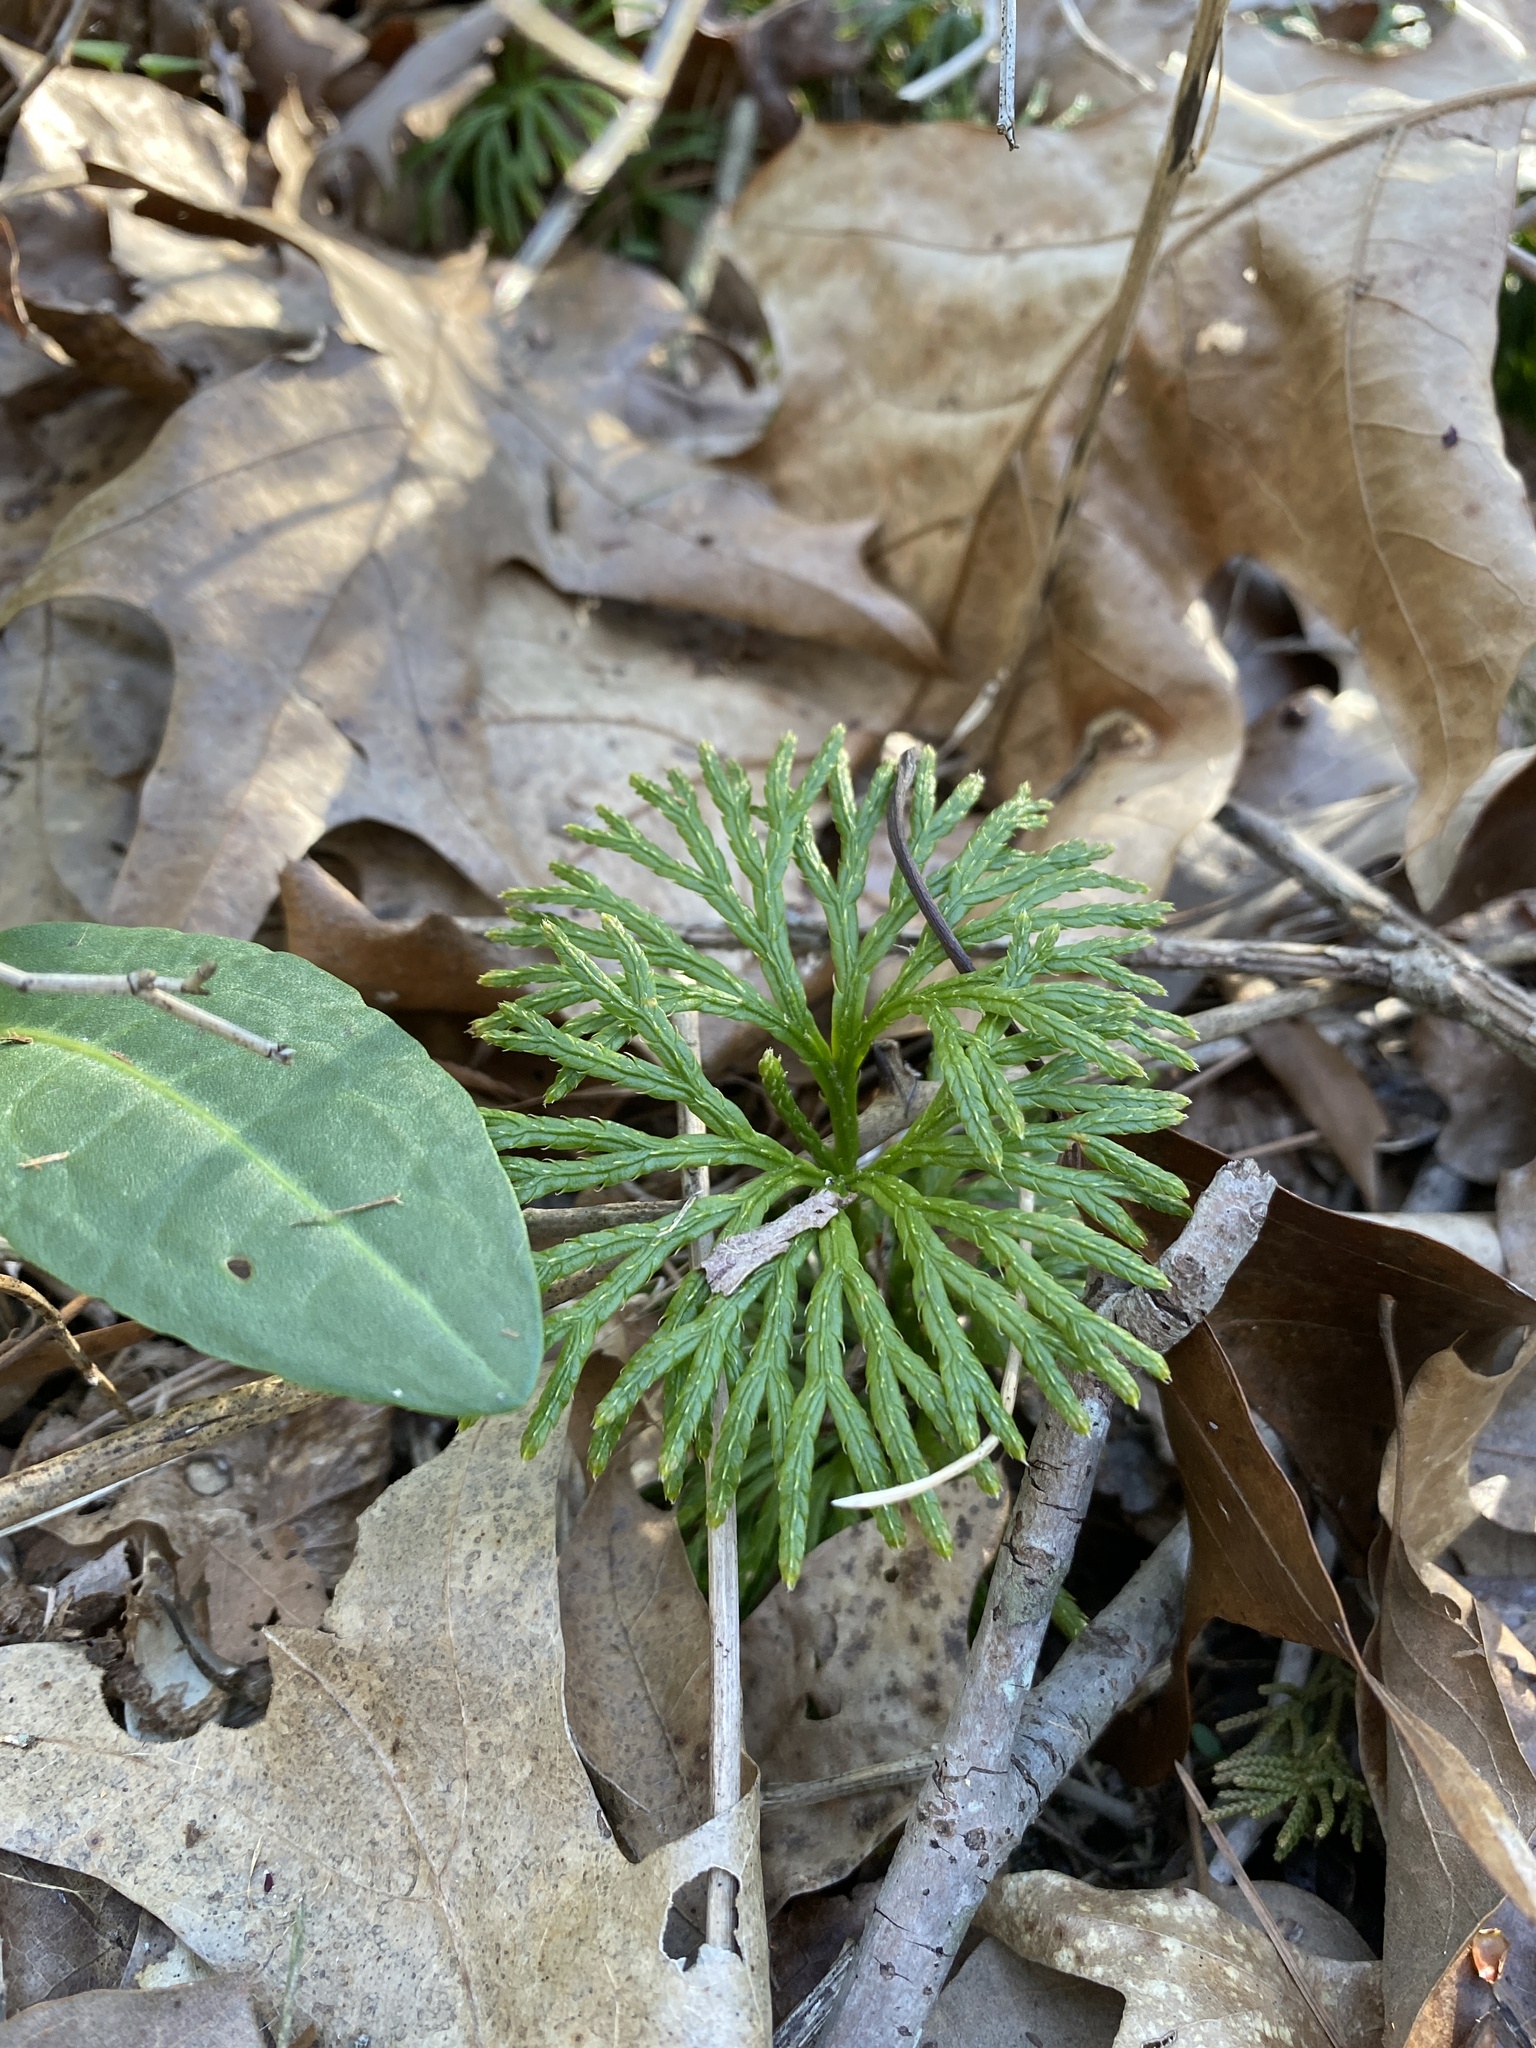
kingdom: Plantae
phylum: Tracheophyta
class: Lycopodiopsida
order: Lycopodiales
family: Lycopodiaceae
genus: Diphasiastrum
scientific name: Diphasiastrum digitatum
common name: Southern running-pine
